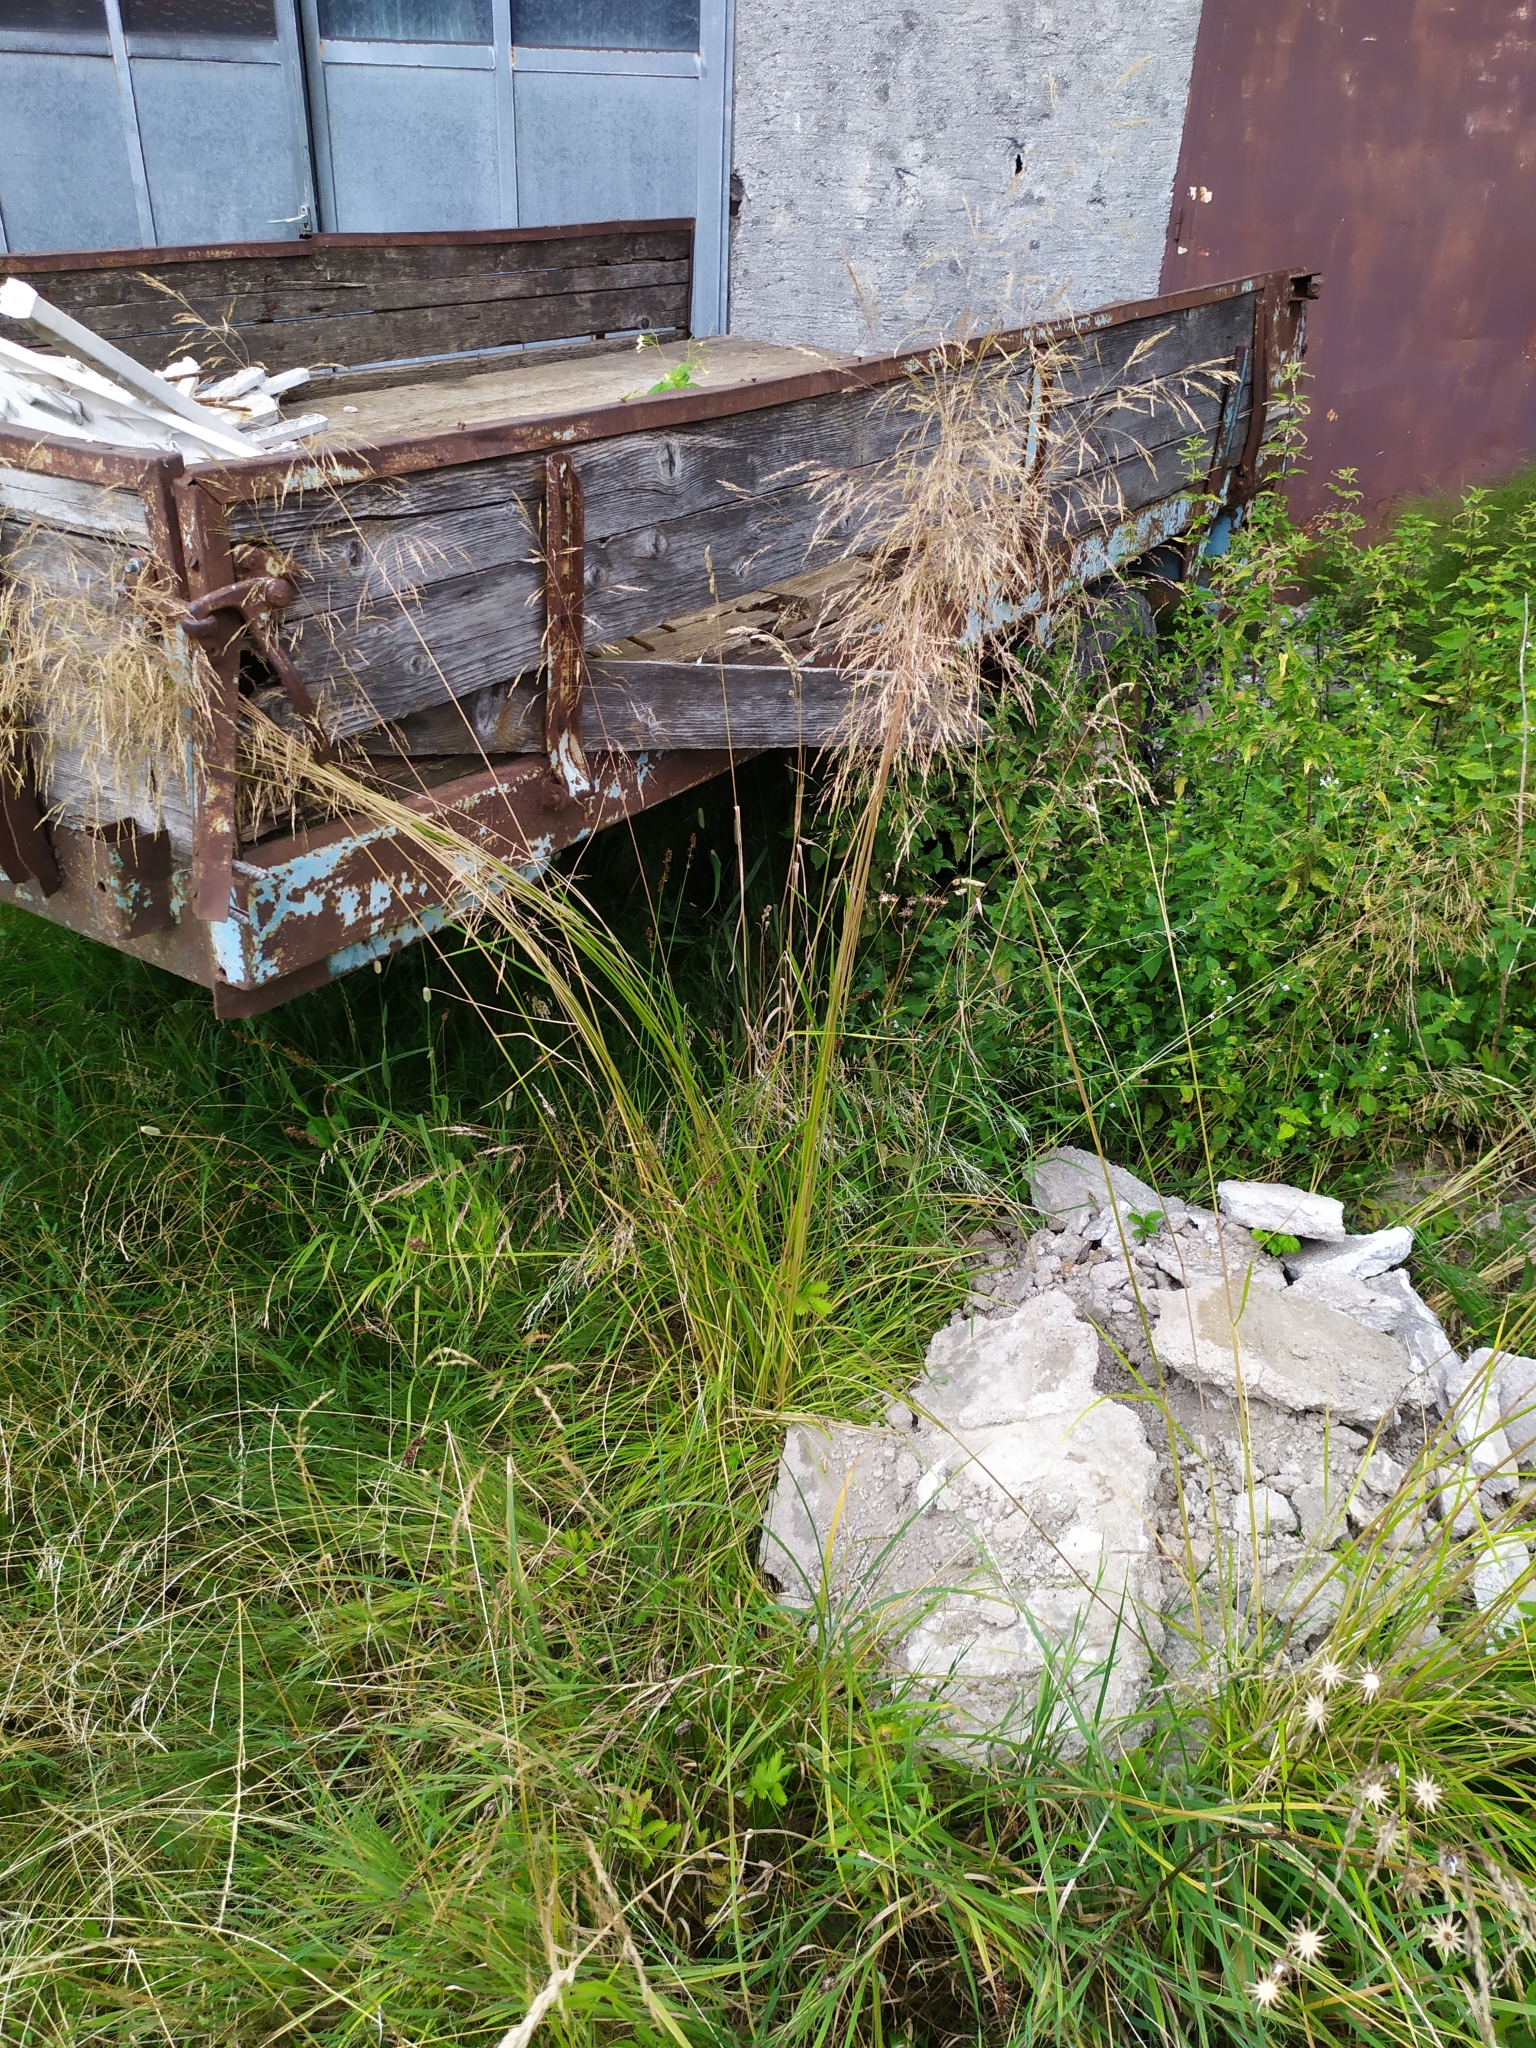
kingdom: Plantae
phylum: Tracheophyta
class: Liliopsida
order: Poales
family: Poaceae
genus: Deschampsia
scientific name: Deschampsia cespitosa
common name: Tufted hair-grass
